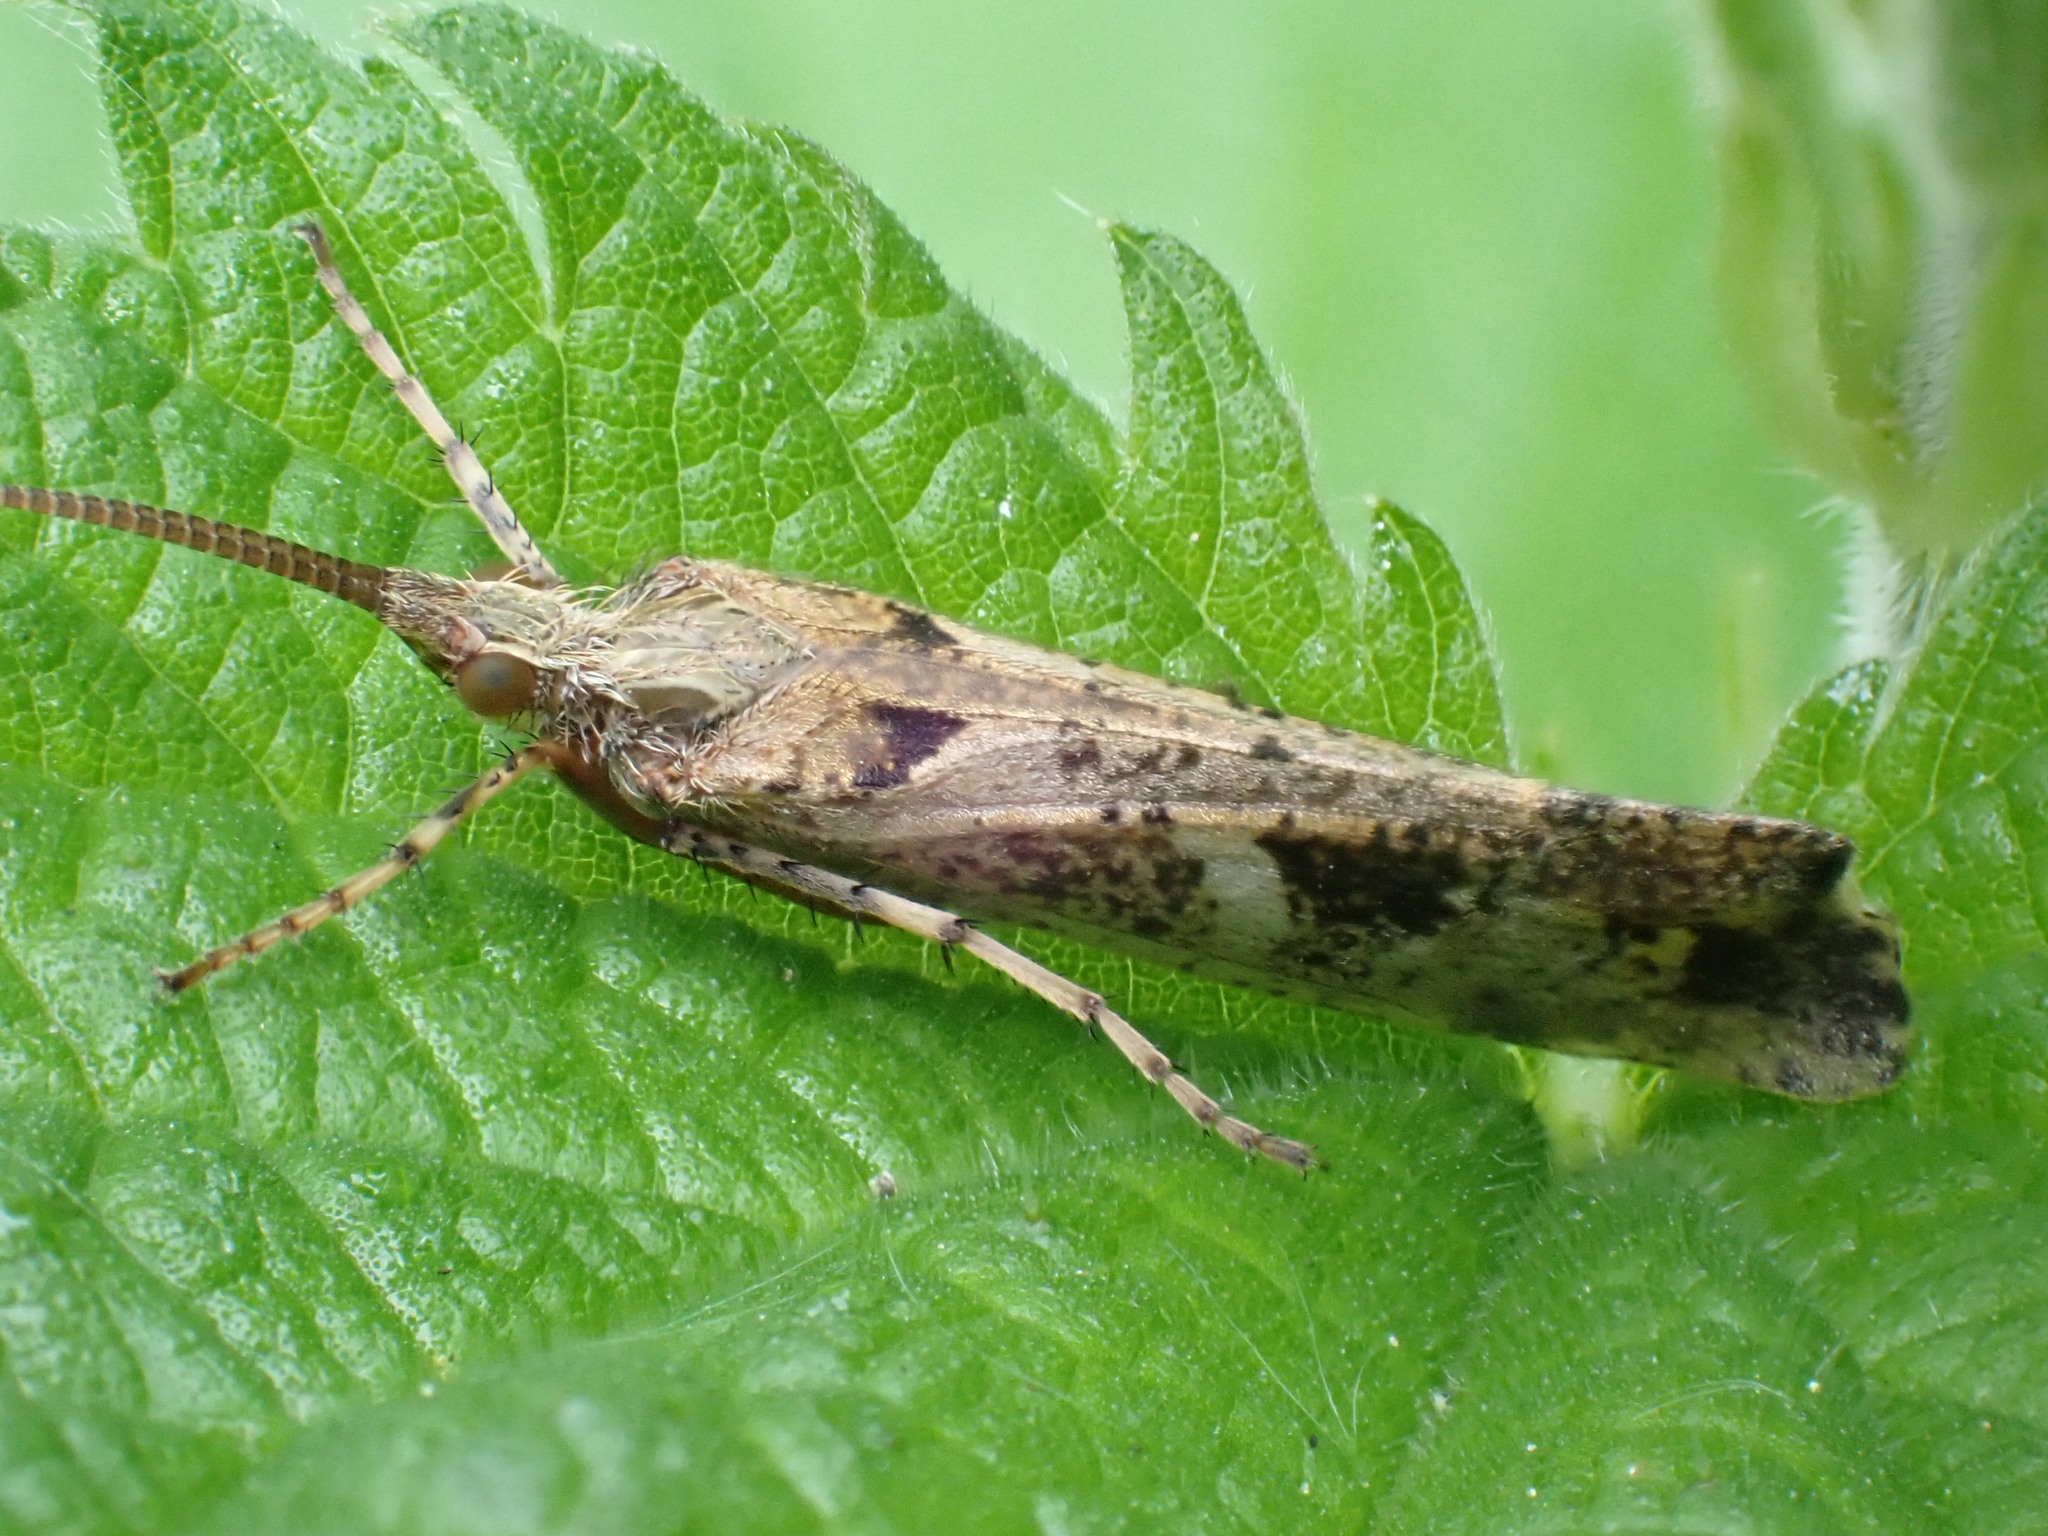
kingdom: Animalia
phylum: Arthropoda
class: Insecta
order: Trichoptera
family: Limnephilidae
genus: Glyphotaelius
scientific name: Glyphotaelius pellucidus
